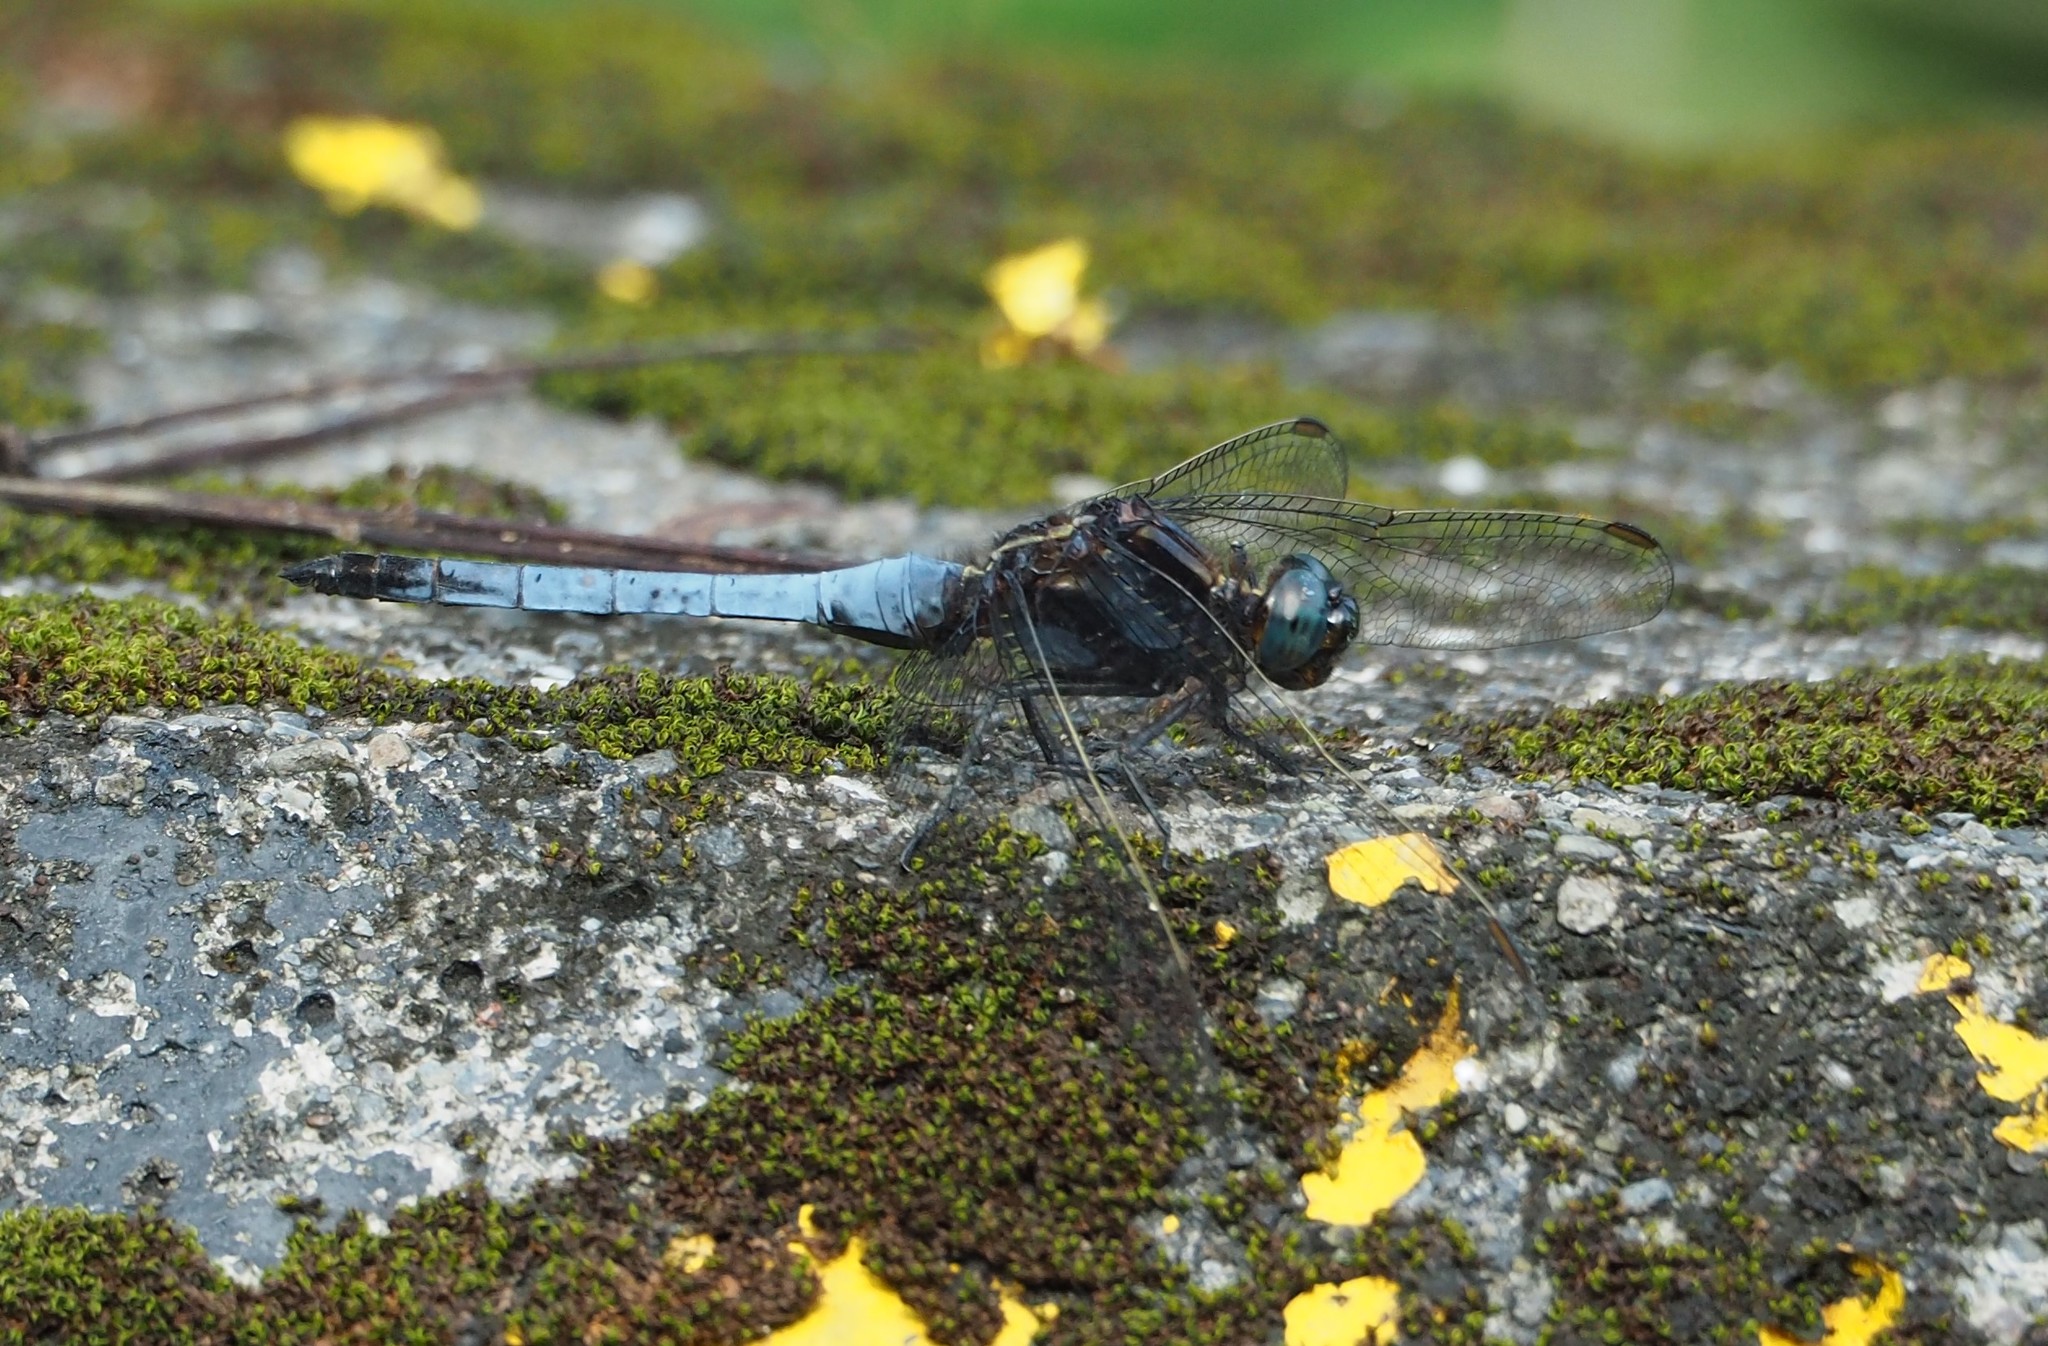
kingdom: Animalia
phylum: Arthropoda
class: Insecta
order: Odonata
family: Libellulidae
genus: Orthetrum
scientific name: Orthetrum glaucum
